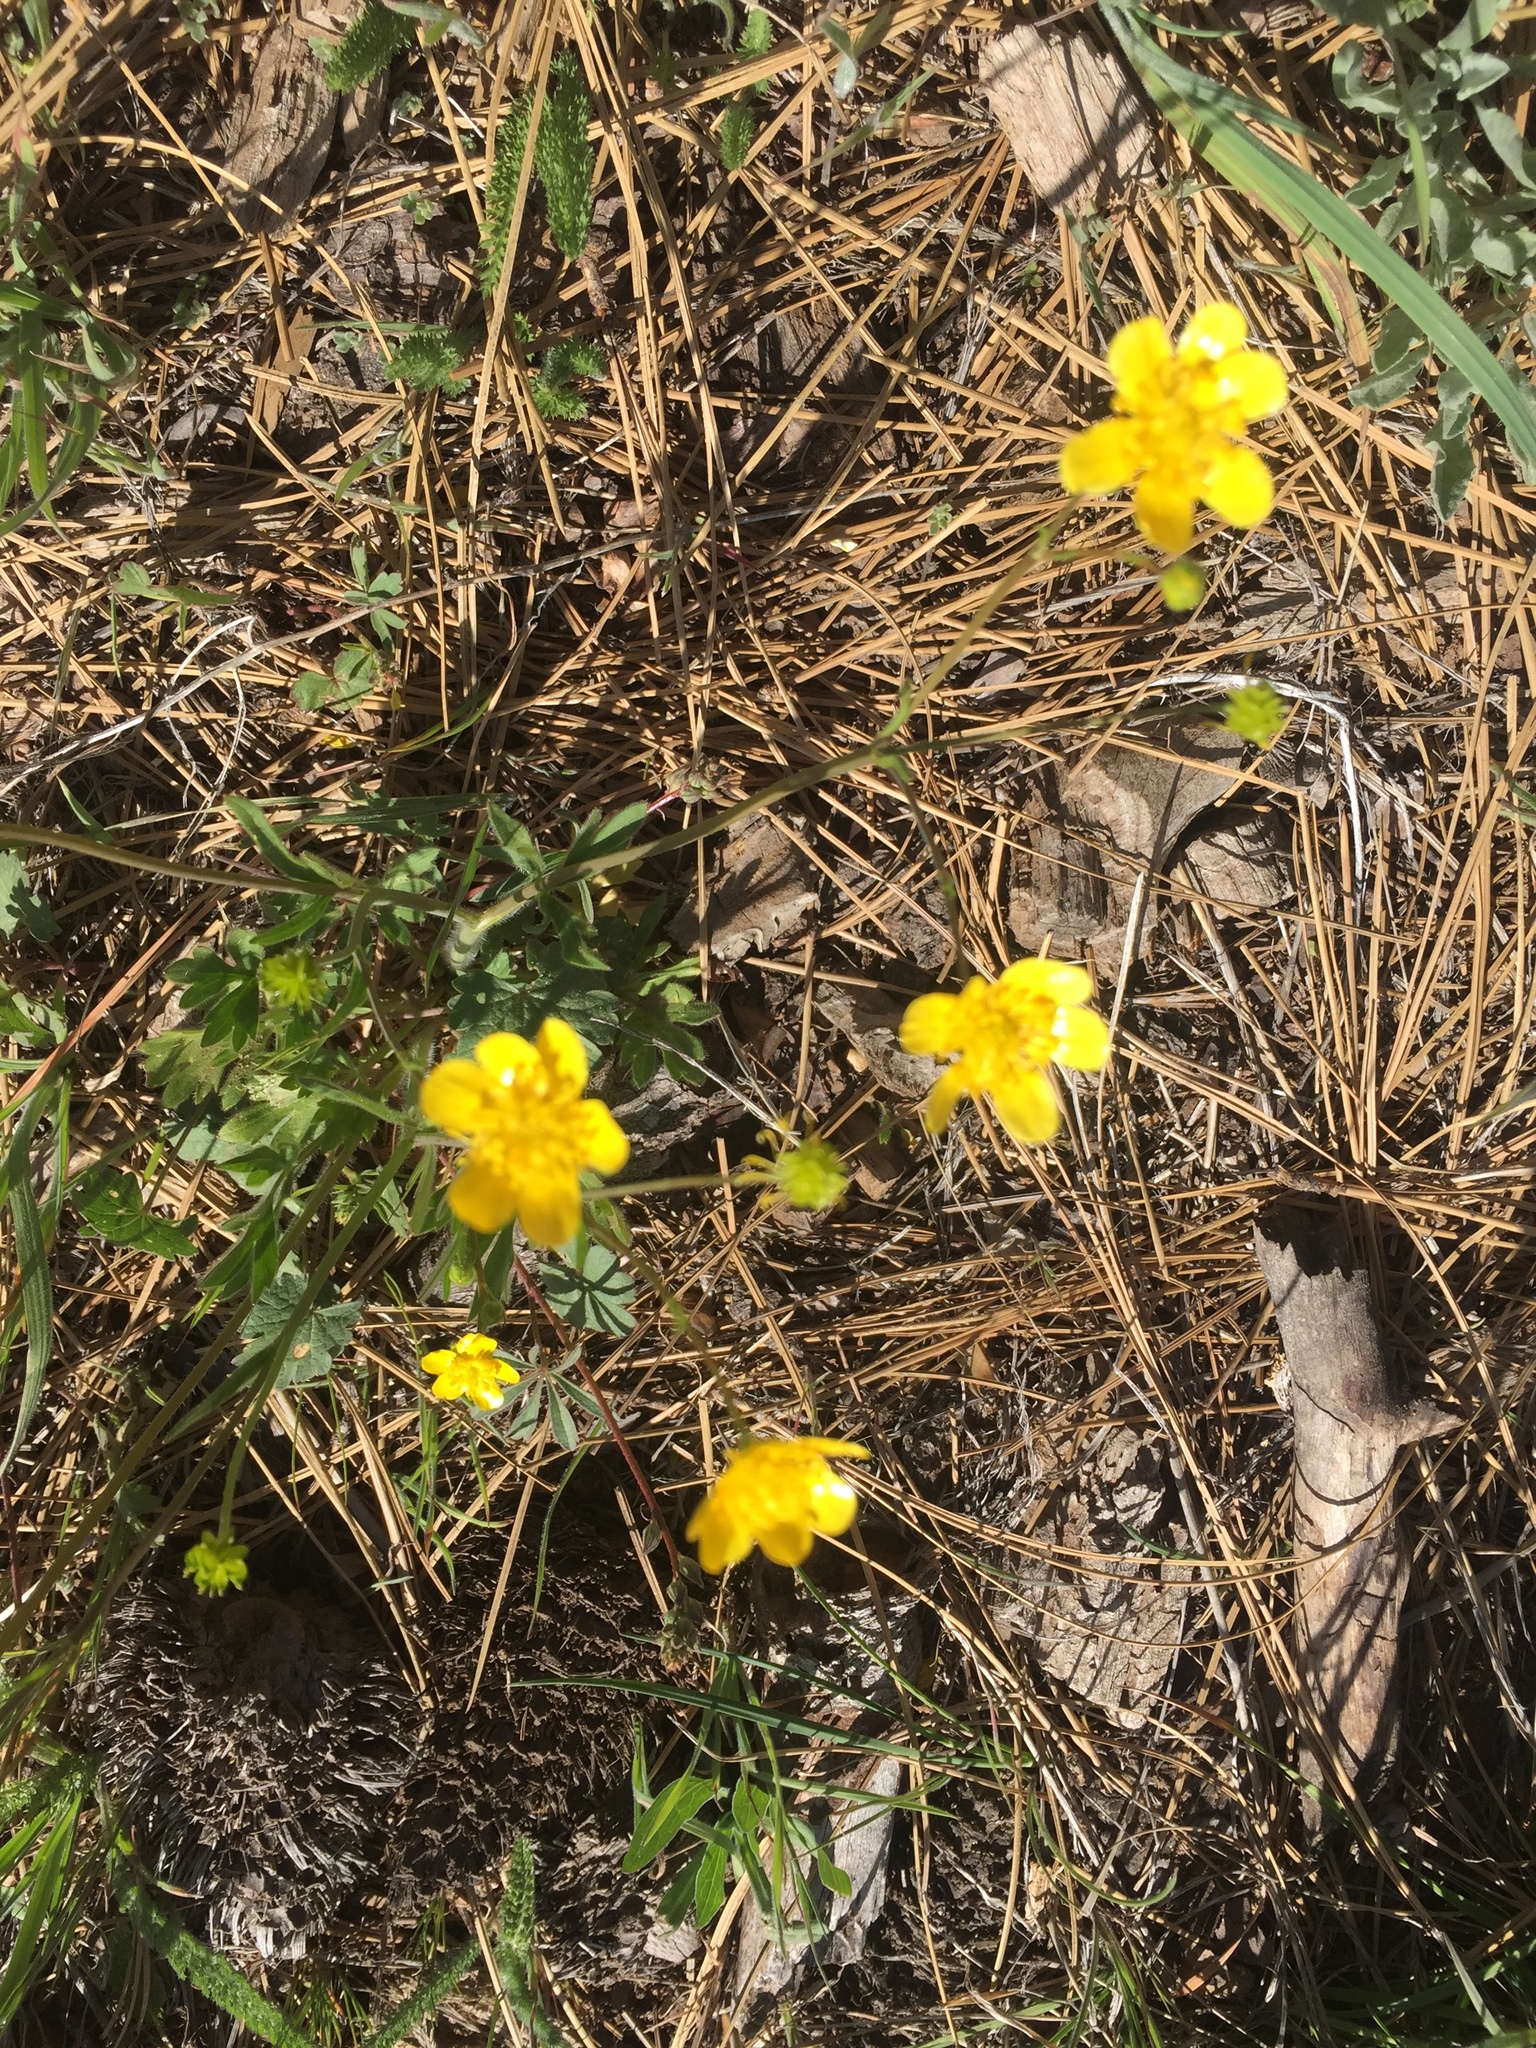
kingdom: Plantae
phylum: Tracheophyta
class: Magnoliopsida
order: Ranunculales
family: Ranunculaceae
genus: Ranunculus
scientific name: Ranunculus occidentalis
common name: Western buttercup
